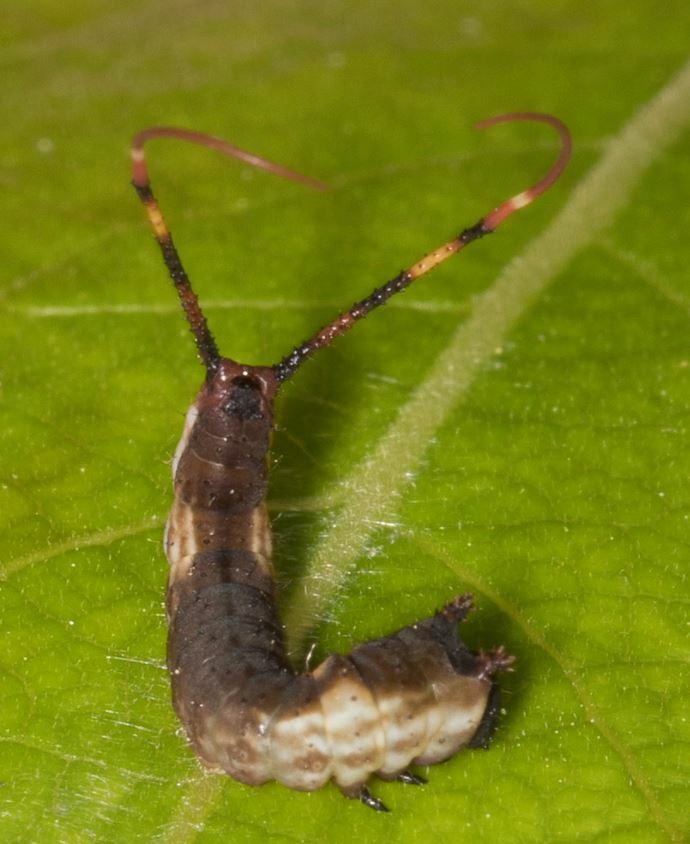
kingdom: Animalia
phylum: Arthropoda
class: Insecta
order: Lepidoptera
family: Notodontidae
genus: Cerura
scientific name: Cerura vinula
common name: Puss moth
